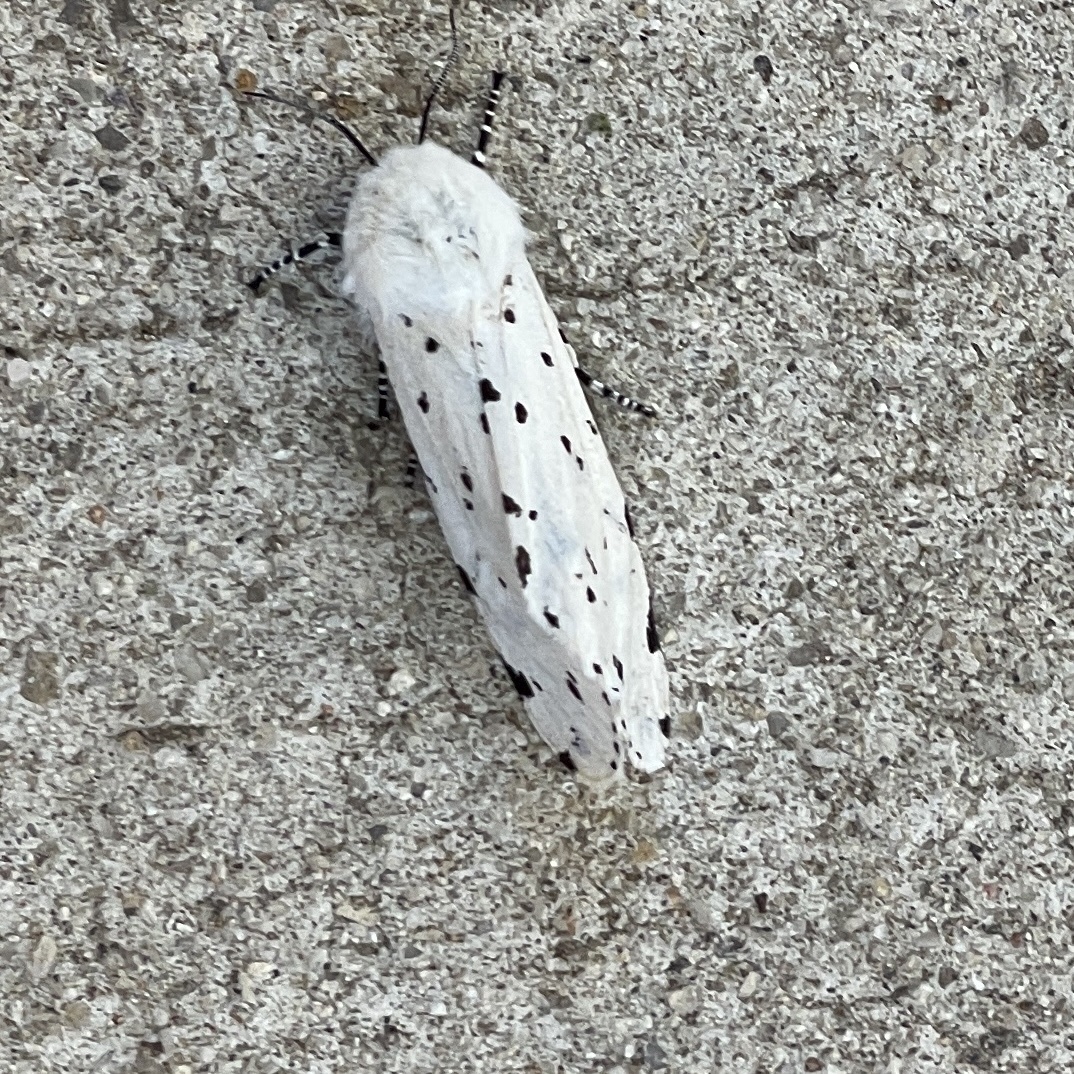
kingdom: Animalia
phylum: Arthropoda
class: Insecta
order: Lepidoptera
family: Erebidae
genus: Estigmene
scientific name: Estigmene acrea
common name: Salt marsh moth
